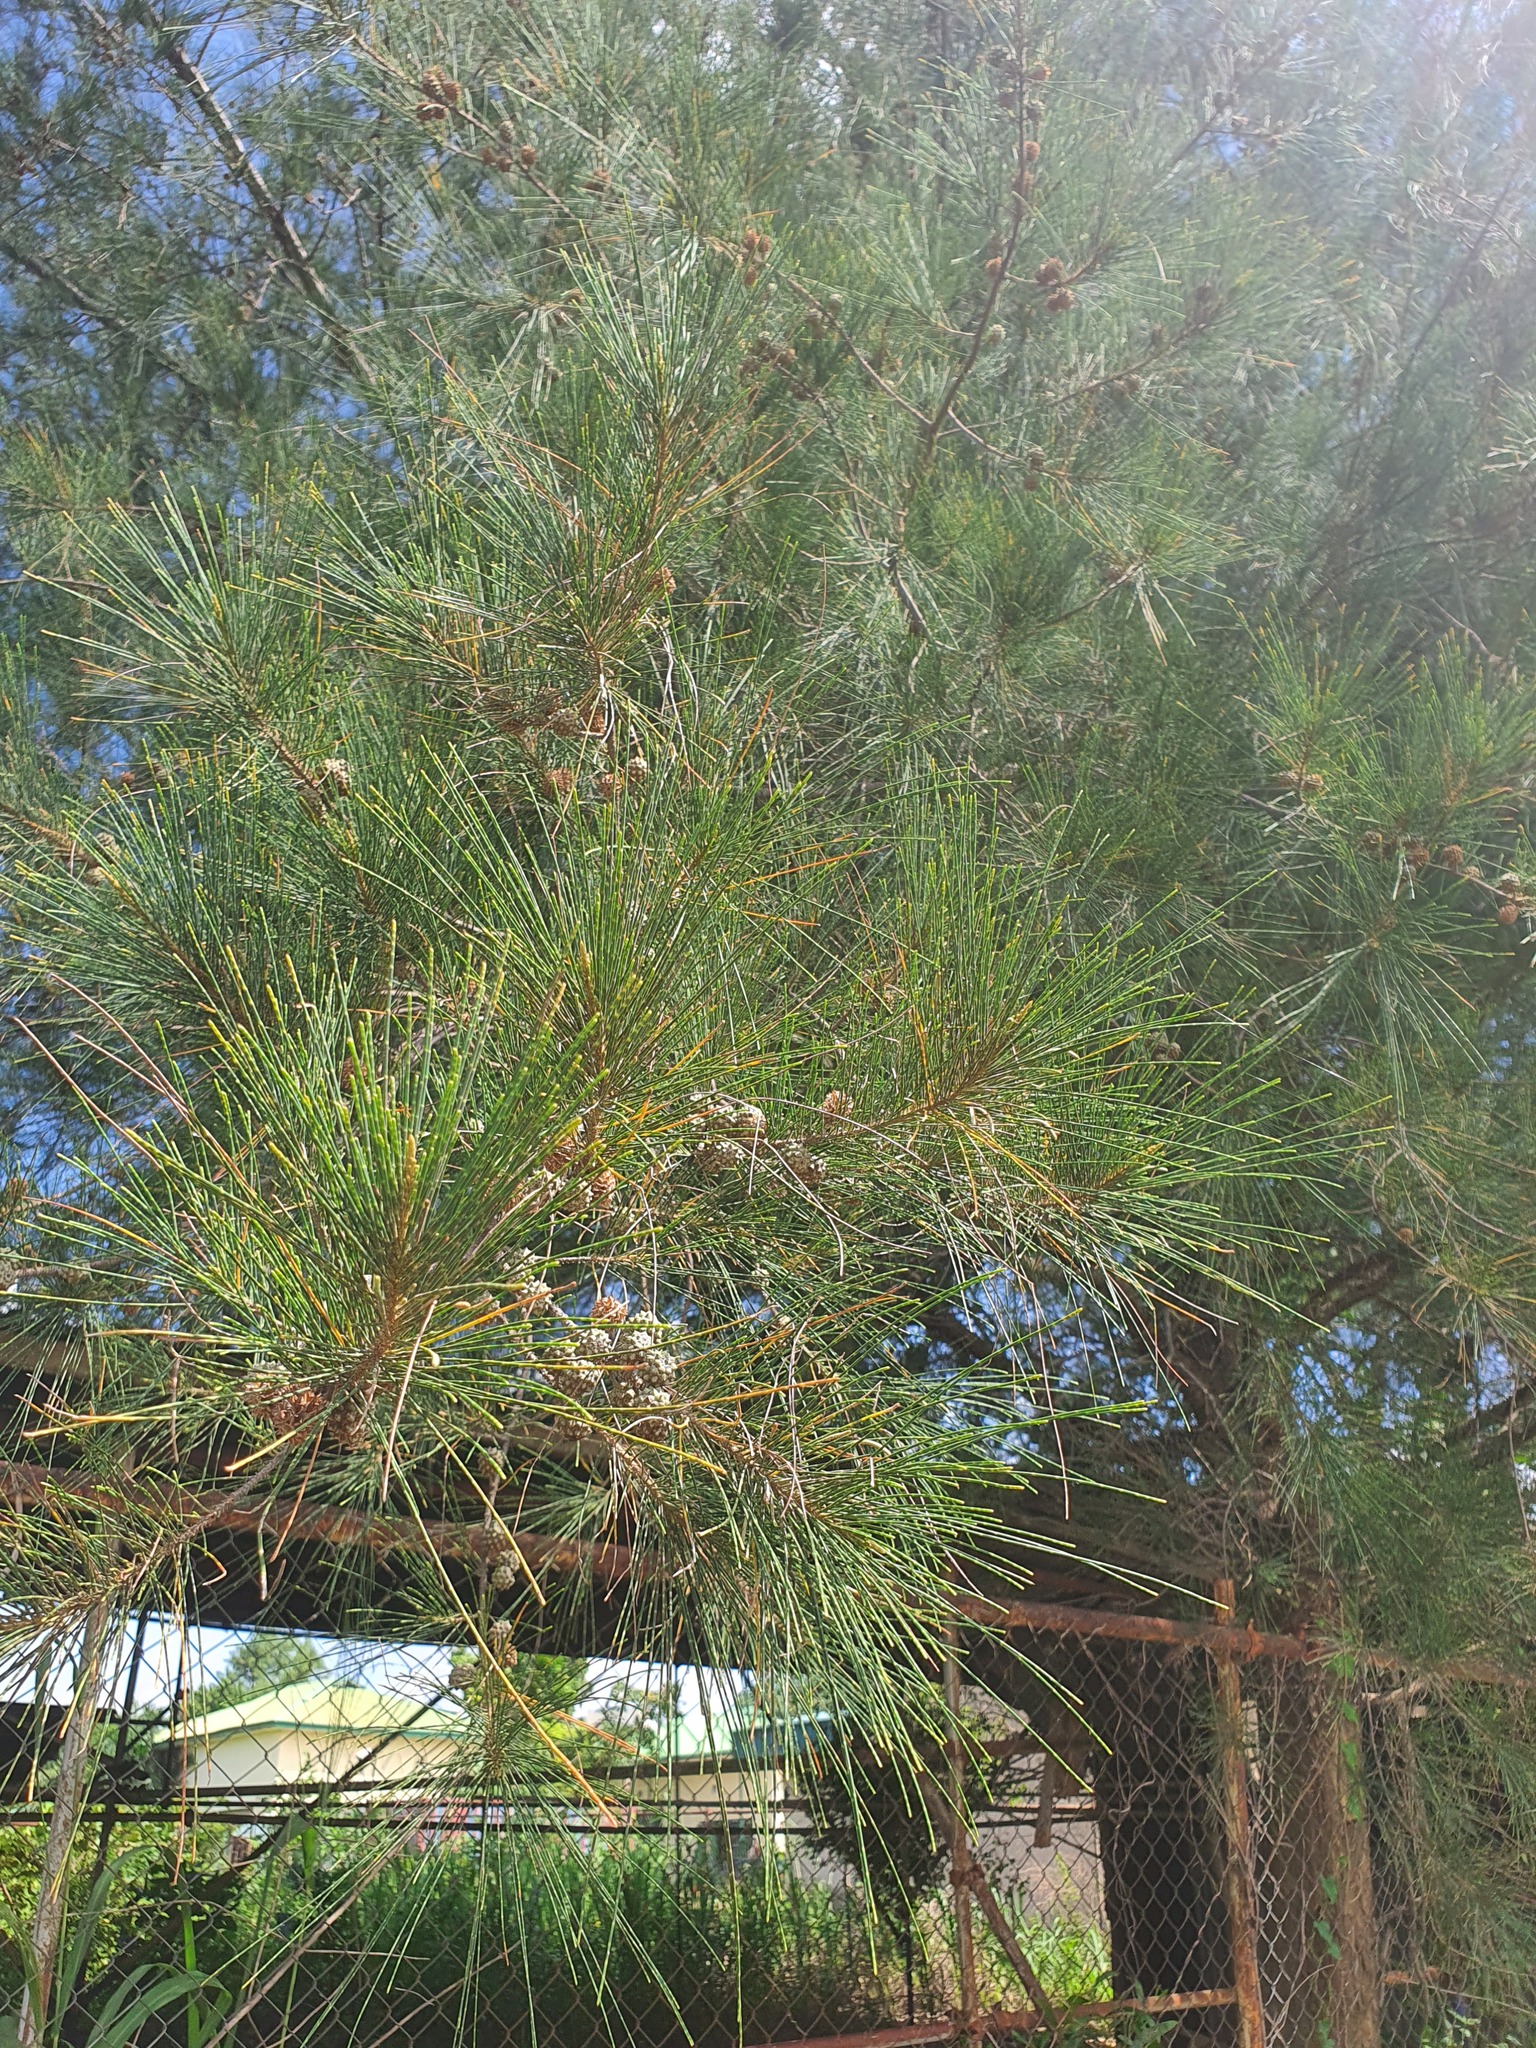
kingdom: Plantae
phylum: Tracheophyta
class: Magnoliopsida
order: Fagales
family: Casuarinaceae
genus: Casuarina
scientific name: Casuarina equisetifolia
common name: Beach sheoak
